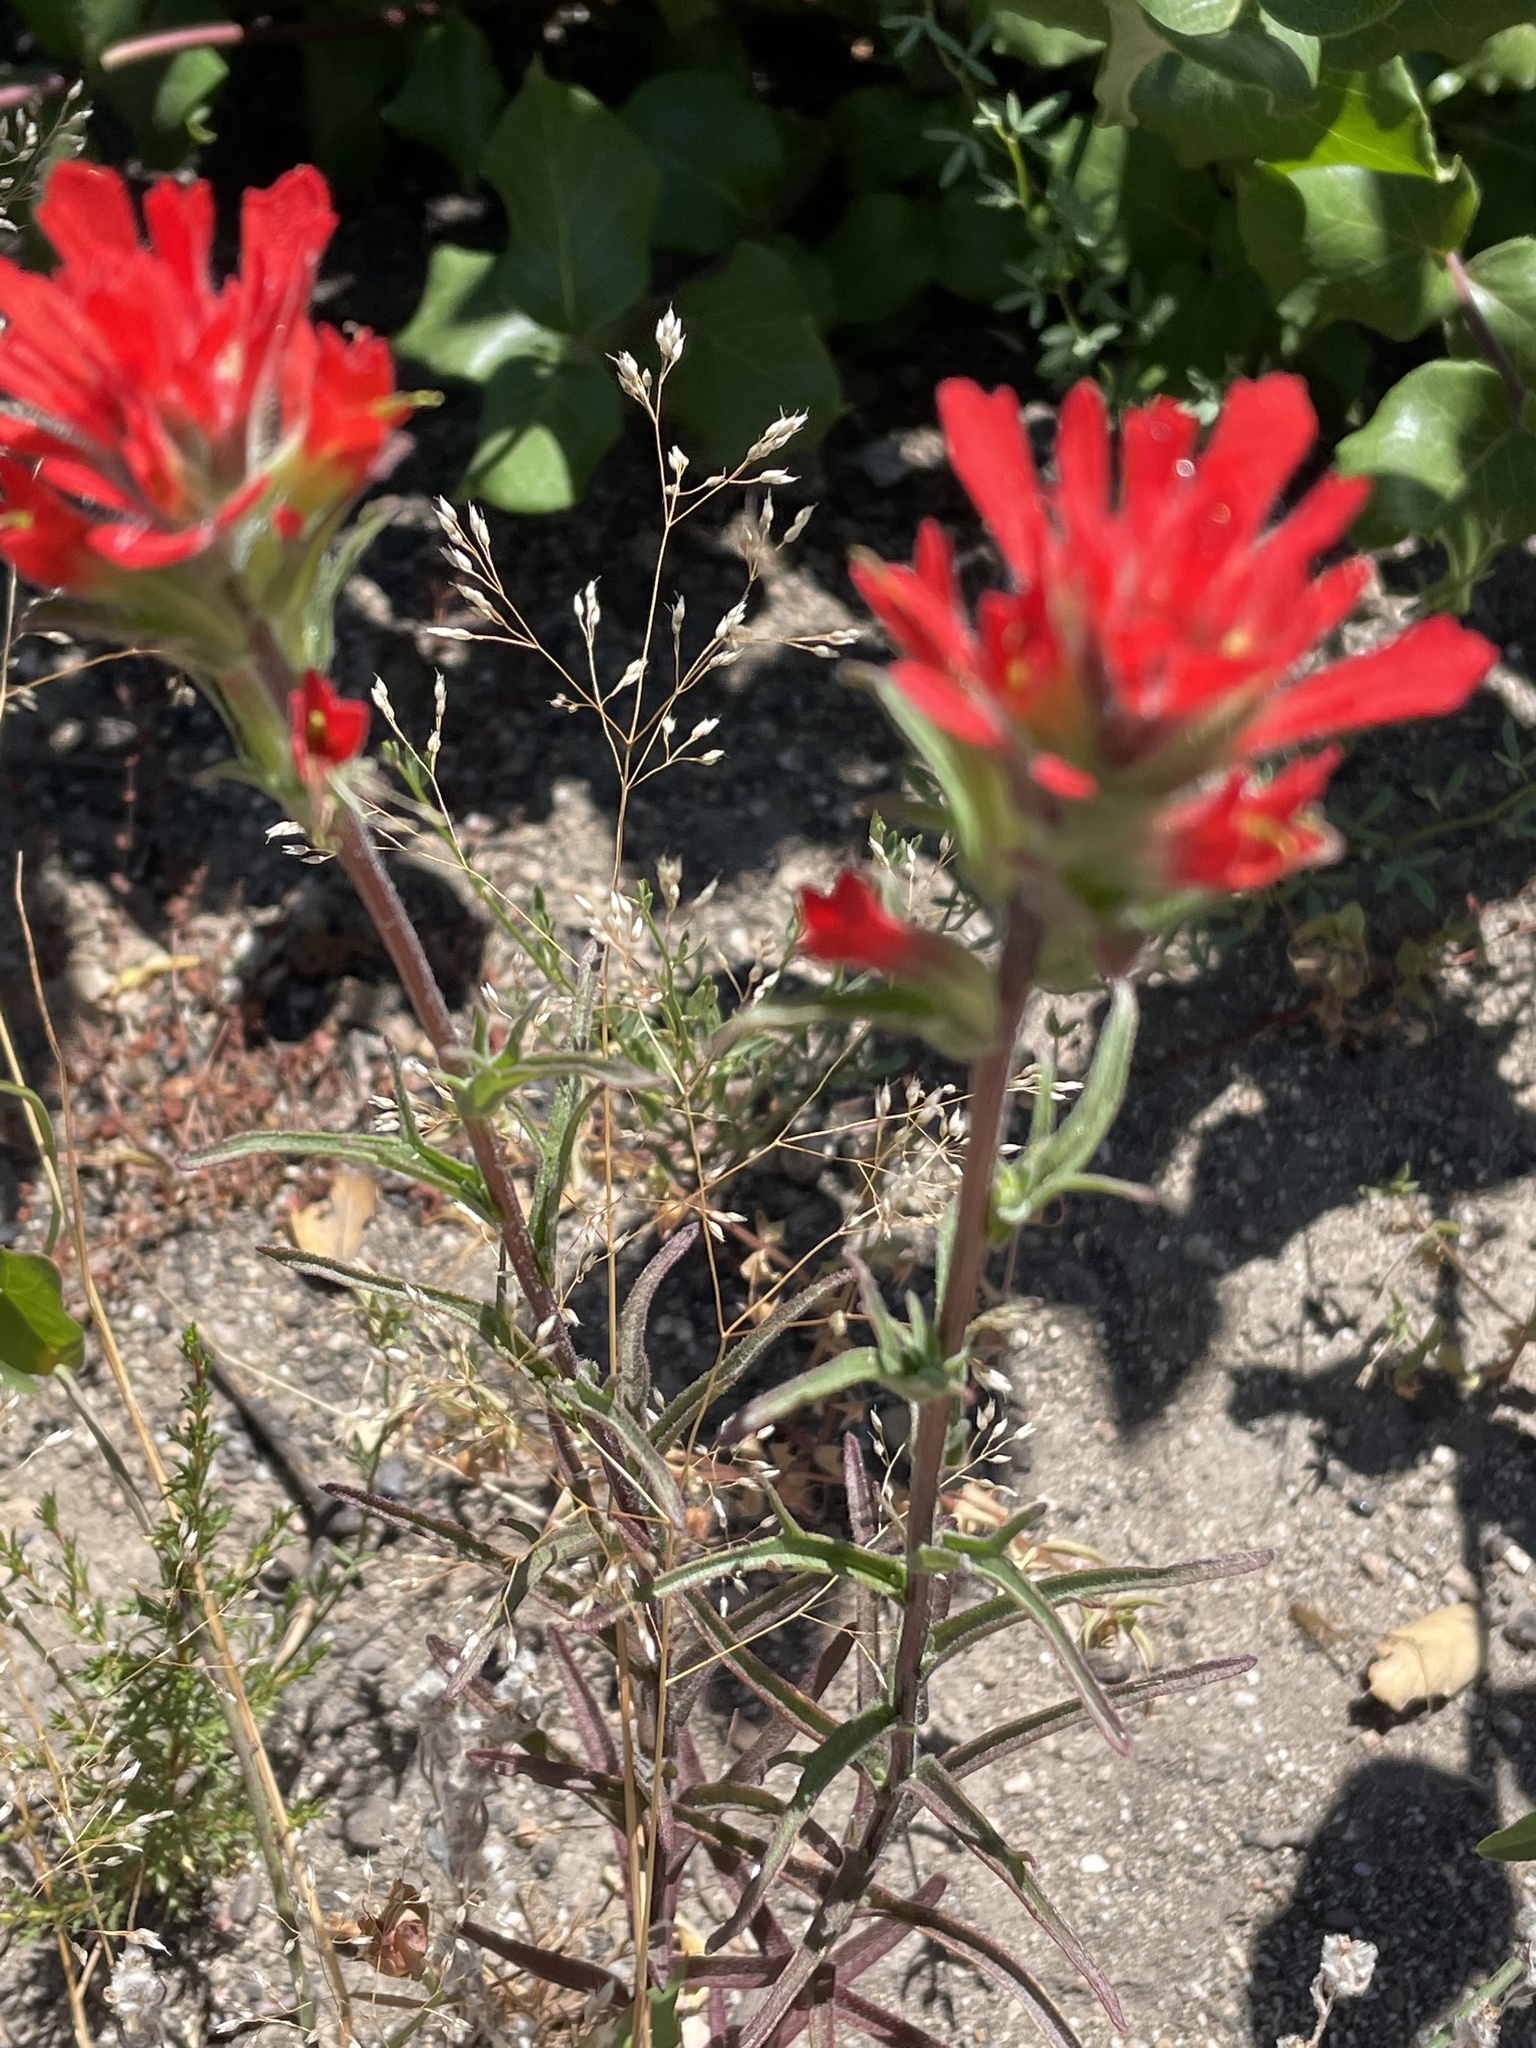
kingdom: Plantae
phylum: Tracheophyta
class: Magnoliopsida
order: Lamiales
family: Orobanchaceae
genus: Castilleja
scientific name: Castilleja affinis
